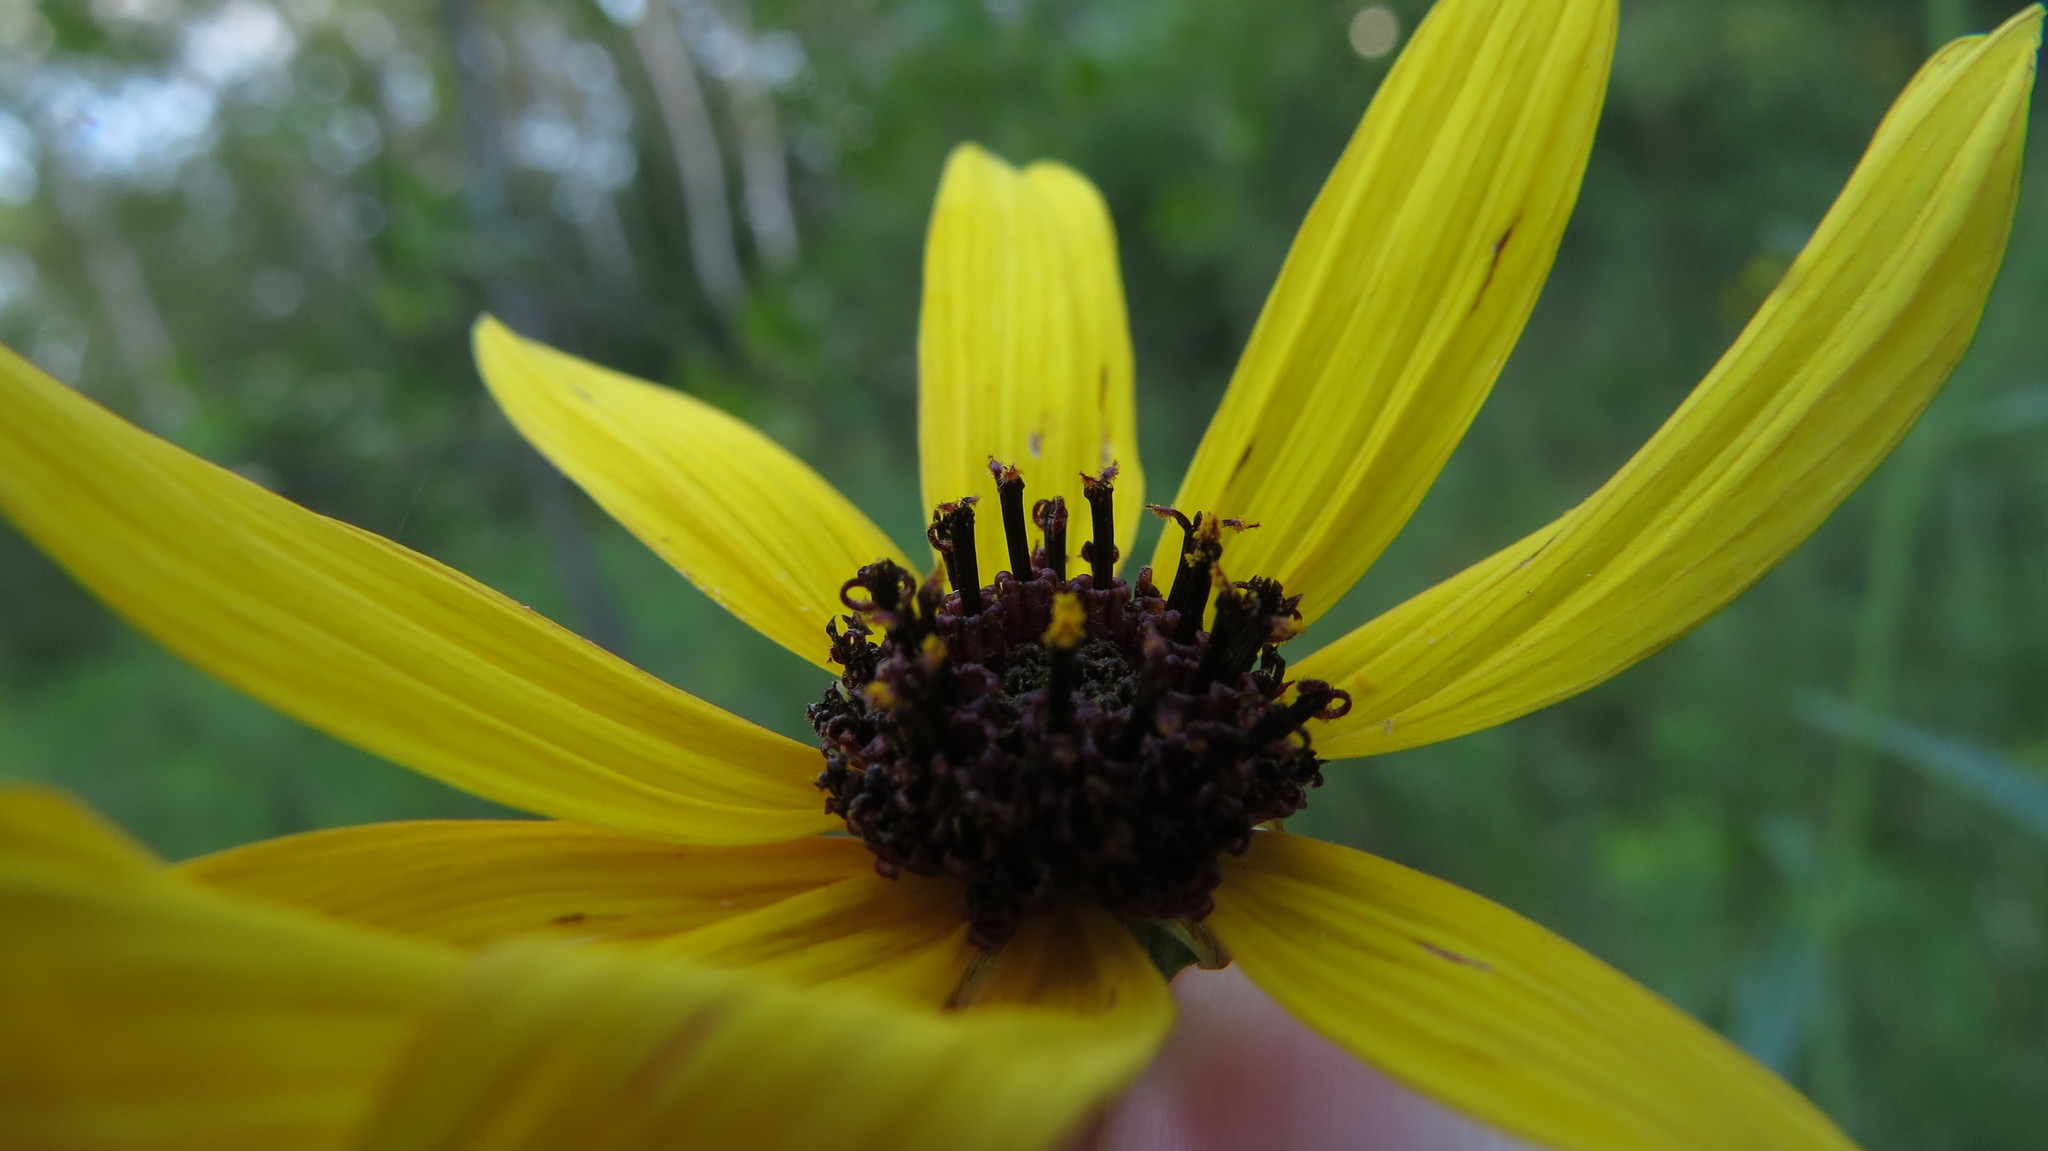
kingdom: Plantae
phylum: Tracheophyta
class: Magnoliopsida
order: Asterales
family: Asteraceae
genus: Coreopsis
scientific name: Coreopsis tripteris
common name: Tall coreopsis
